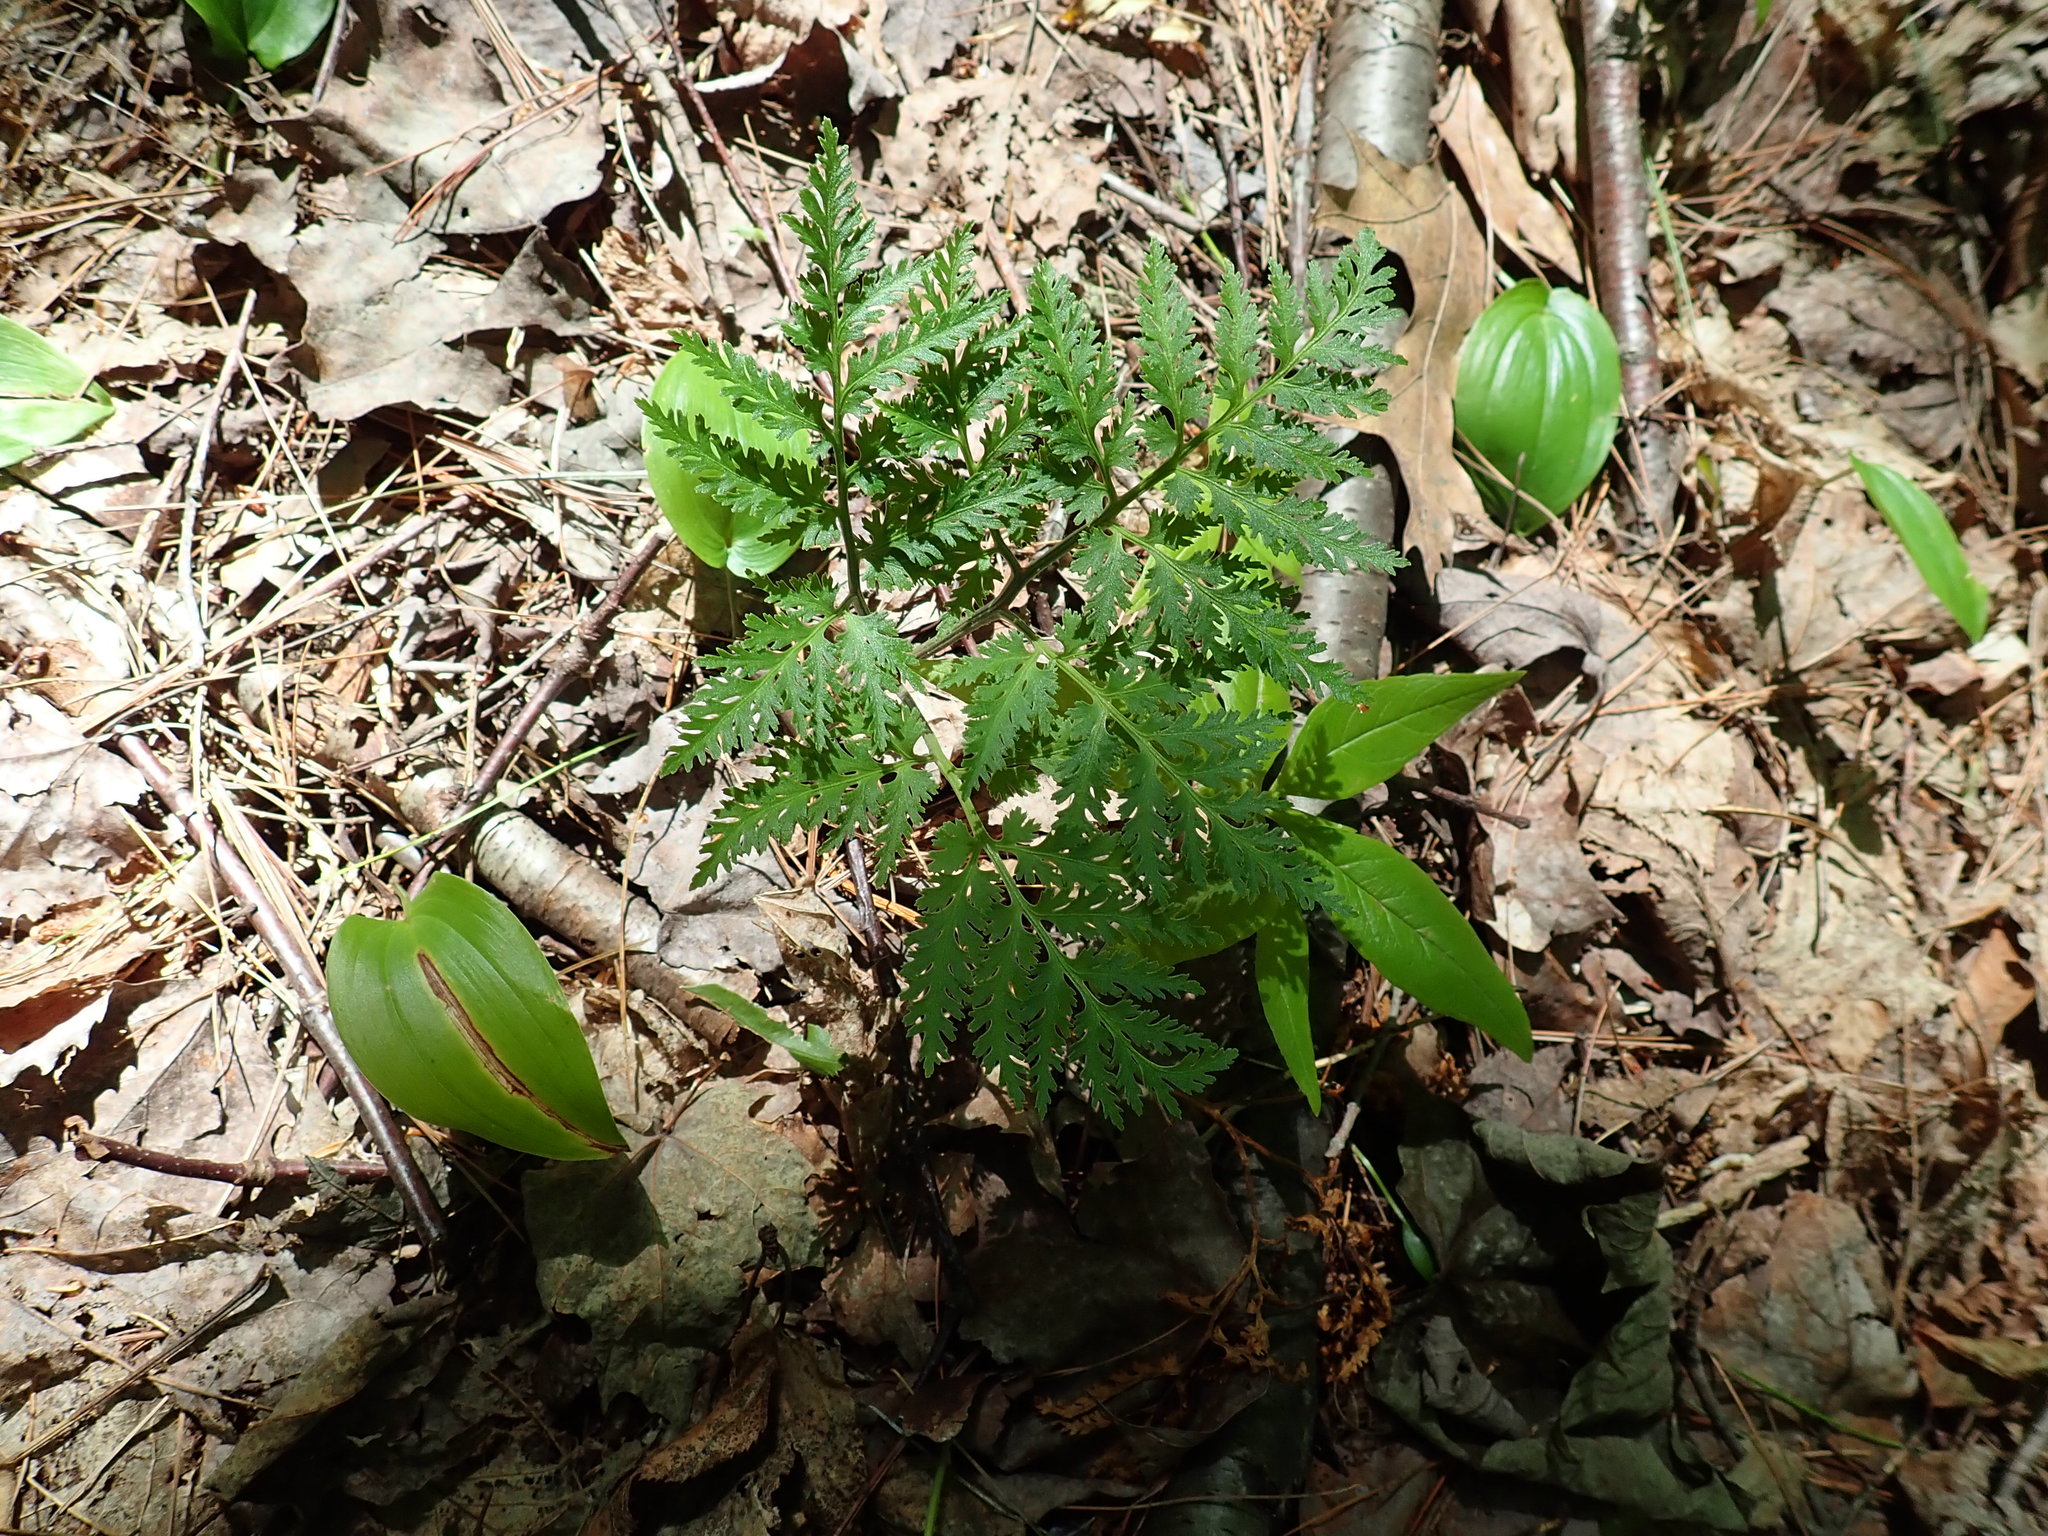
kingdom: Plantae
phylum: Tracheophyta
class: Polypodiopsida
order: Ophioglossales
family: Ophioglossaceae
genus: Sceptridium
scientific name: Sceptridium dissectum
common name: Cut-leaved grapefern
